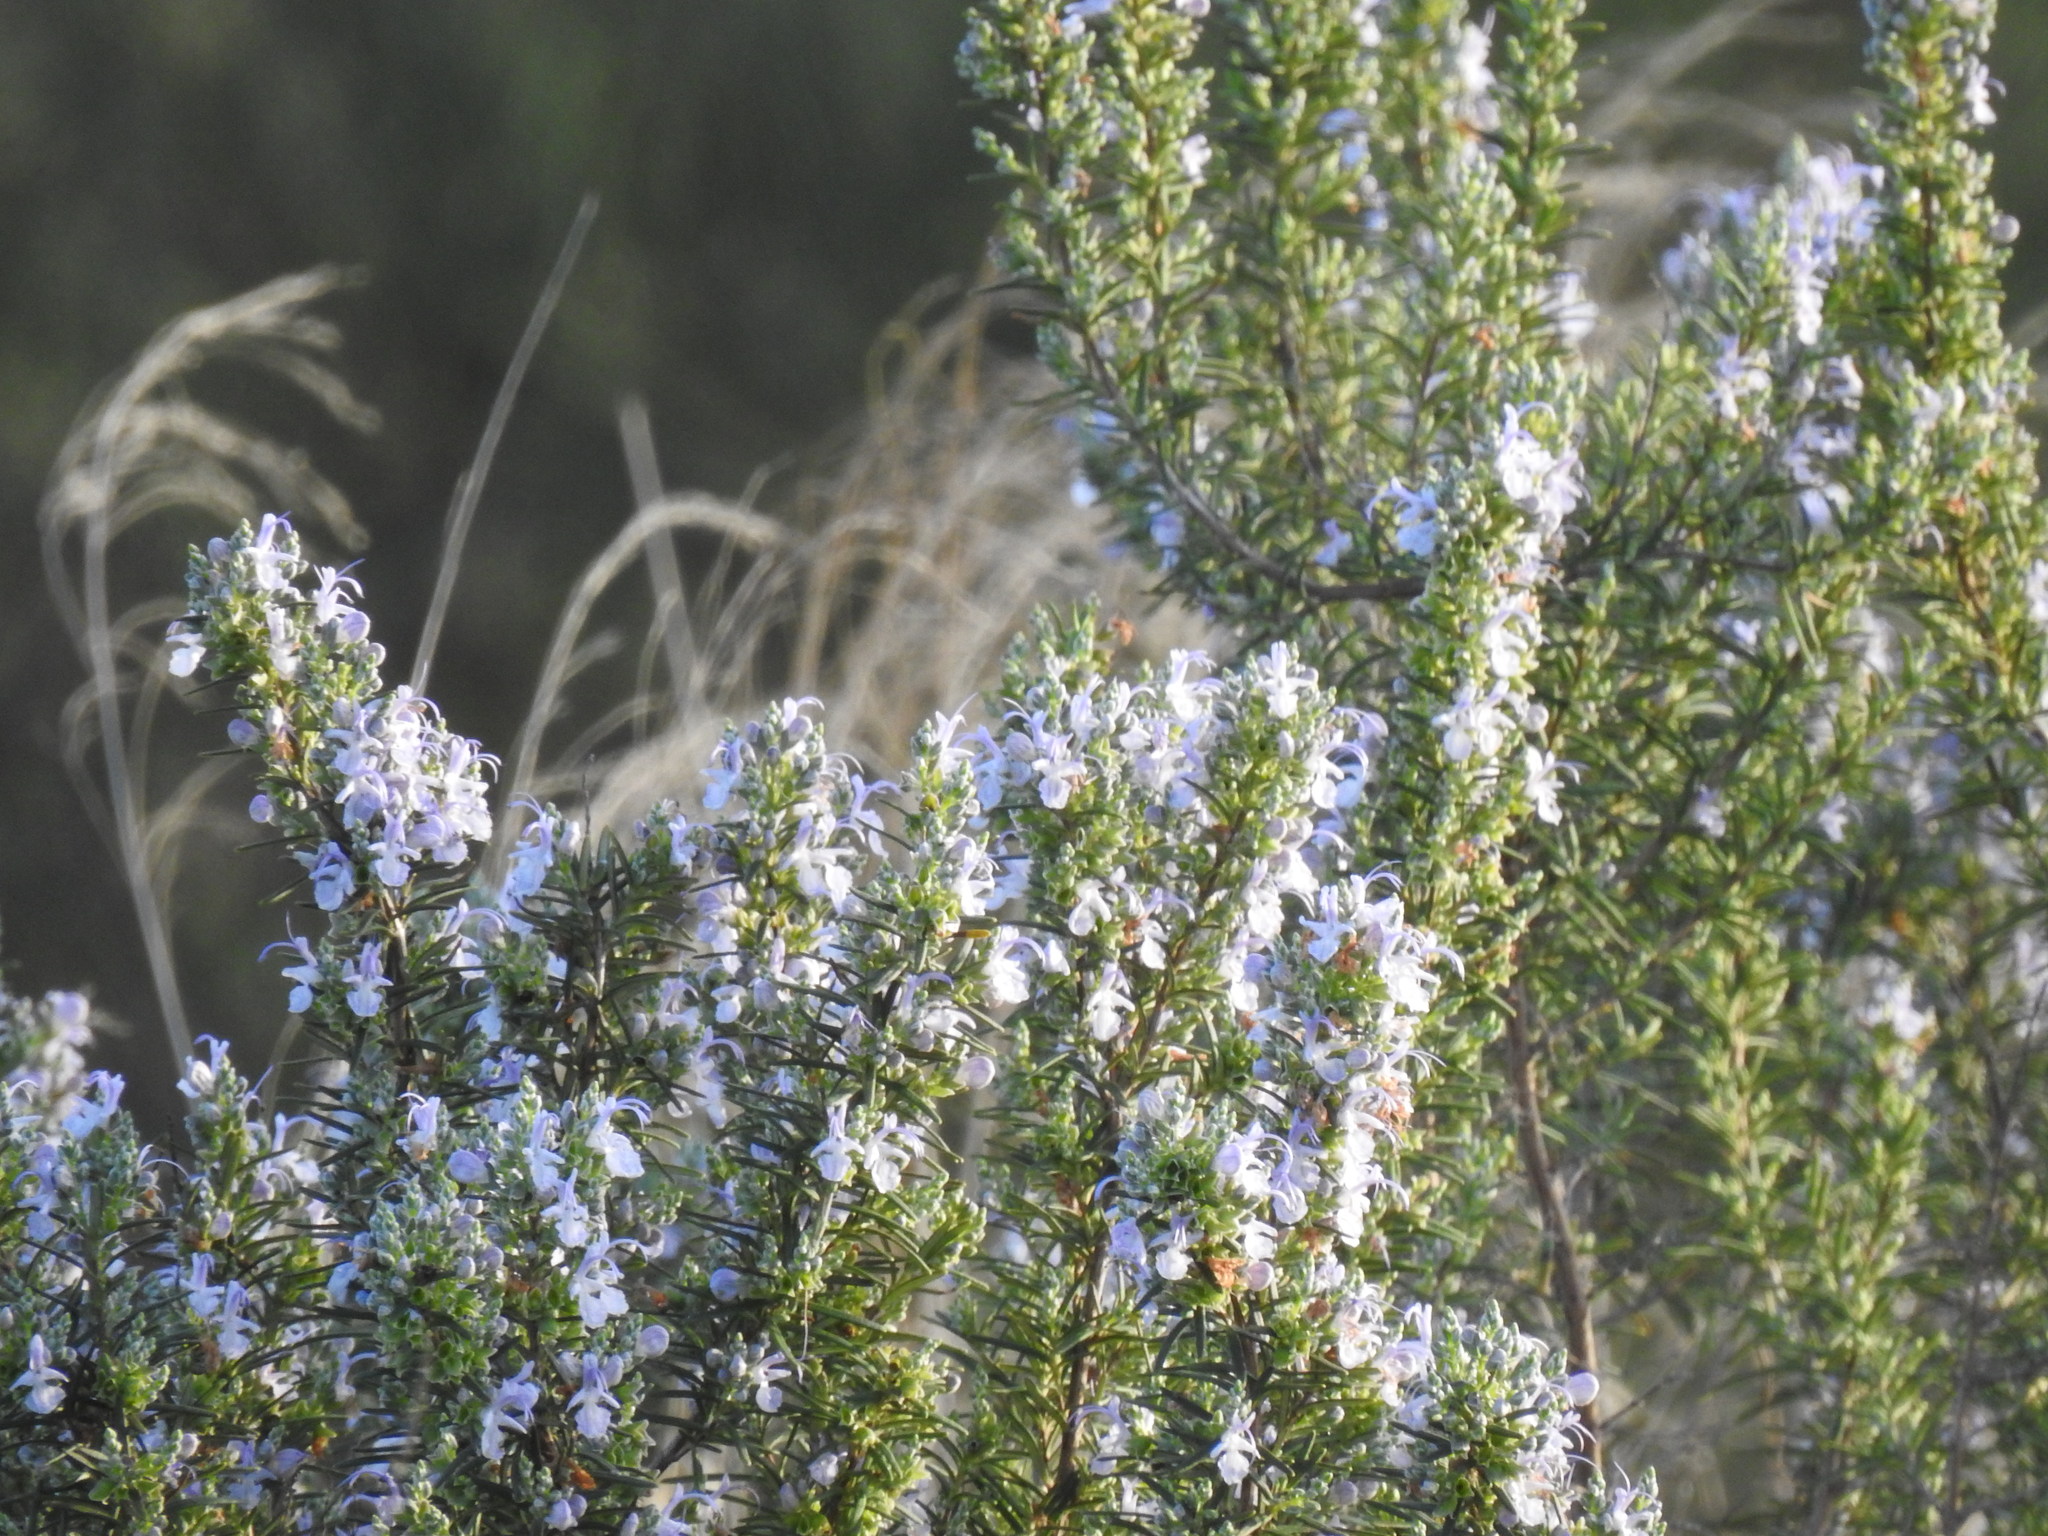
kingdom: Plantae
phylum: Tracheophyta
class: Magnoliopsida
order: Lamiales
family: Lamiaceae
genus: Salvia
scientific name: Salvia rosmarinus
